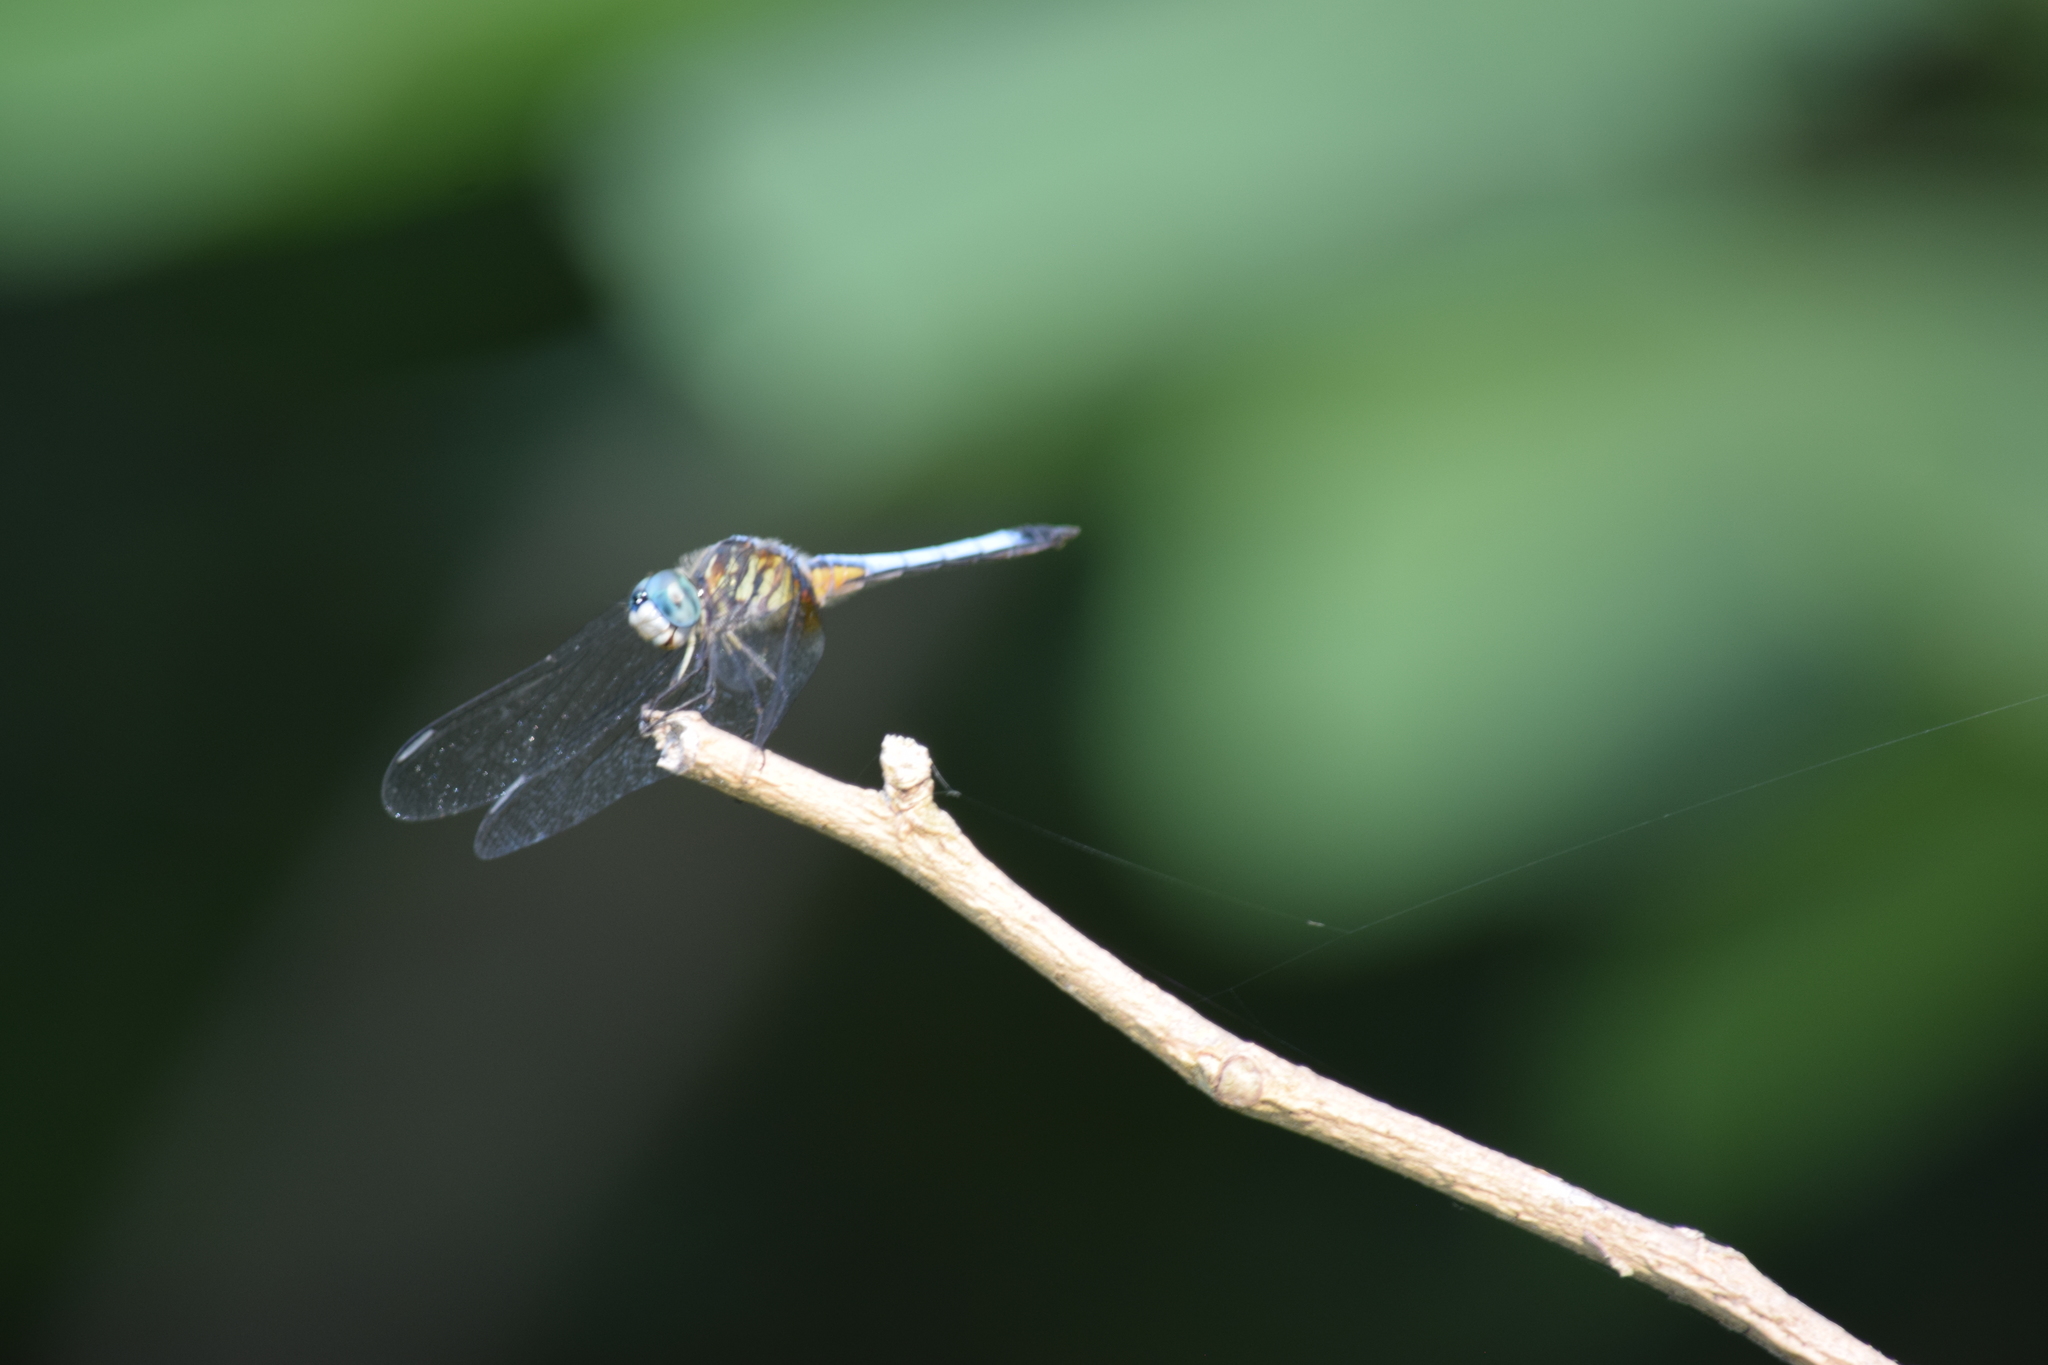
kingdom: Animalia
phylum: Arthropoda
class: Insecta
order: Odonata
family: Libellulidae
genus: Pachydiplax
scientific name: Pachydiplax longipennis
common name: Blue dasher
